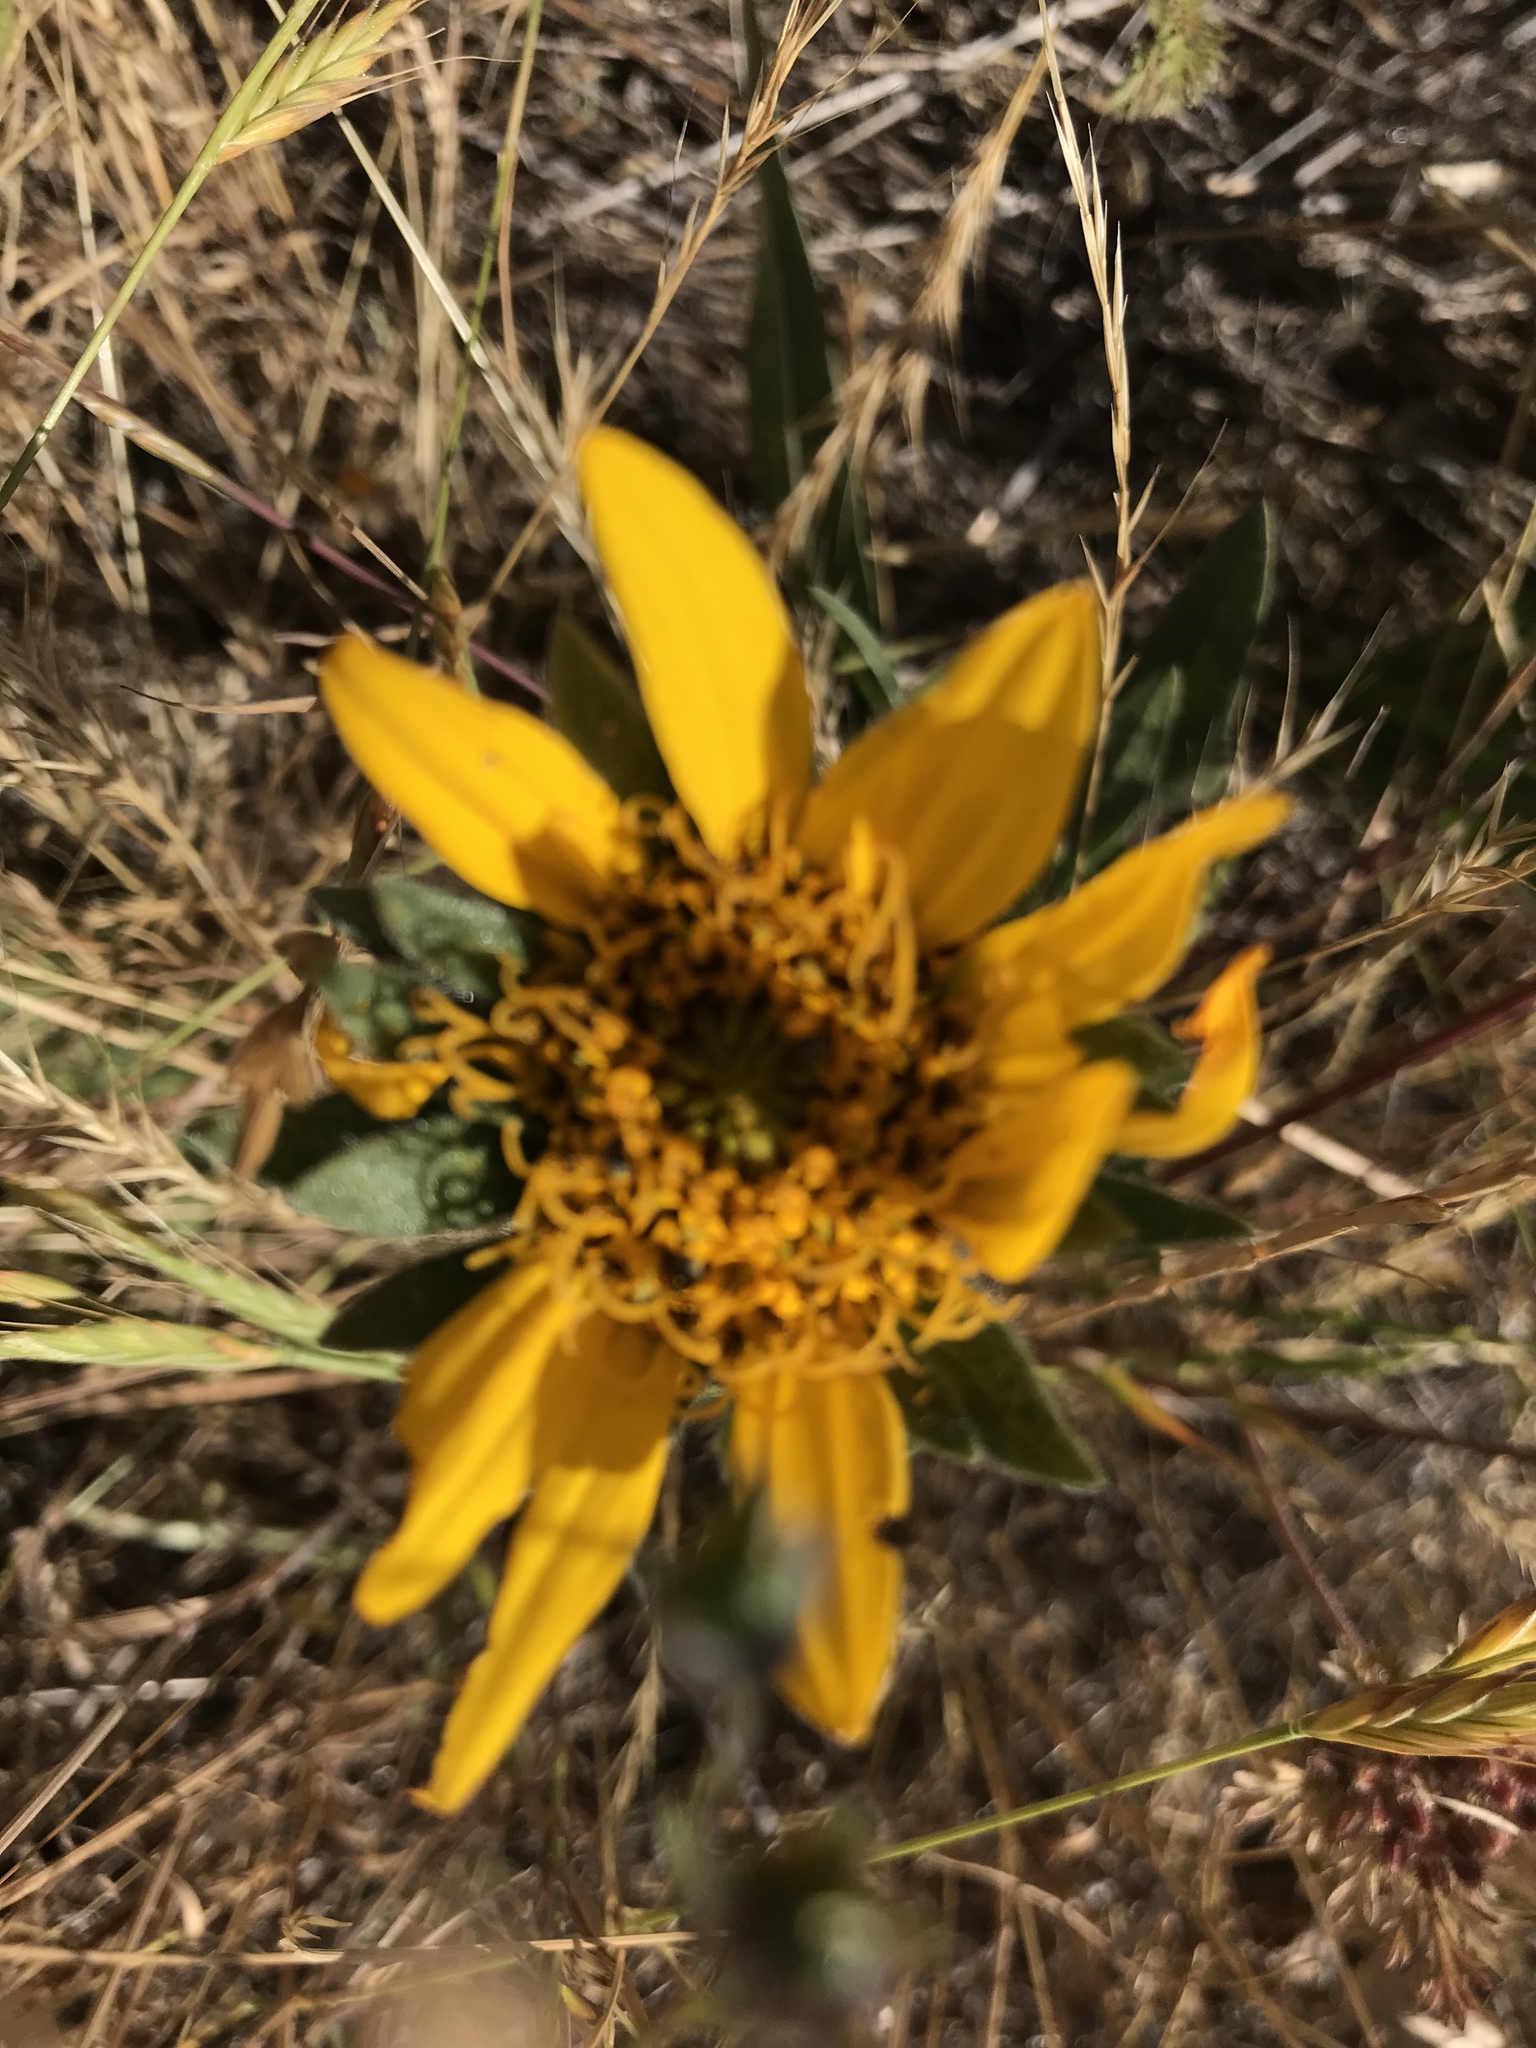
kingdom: Plantae
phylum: Tracheophyta
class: Magnoliopsida
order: Asterales
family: Asteraceae
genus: Wyethia
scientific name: Wyethia angustifolia
